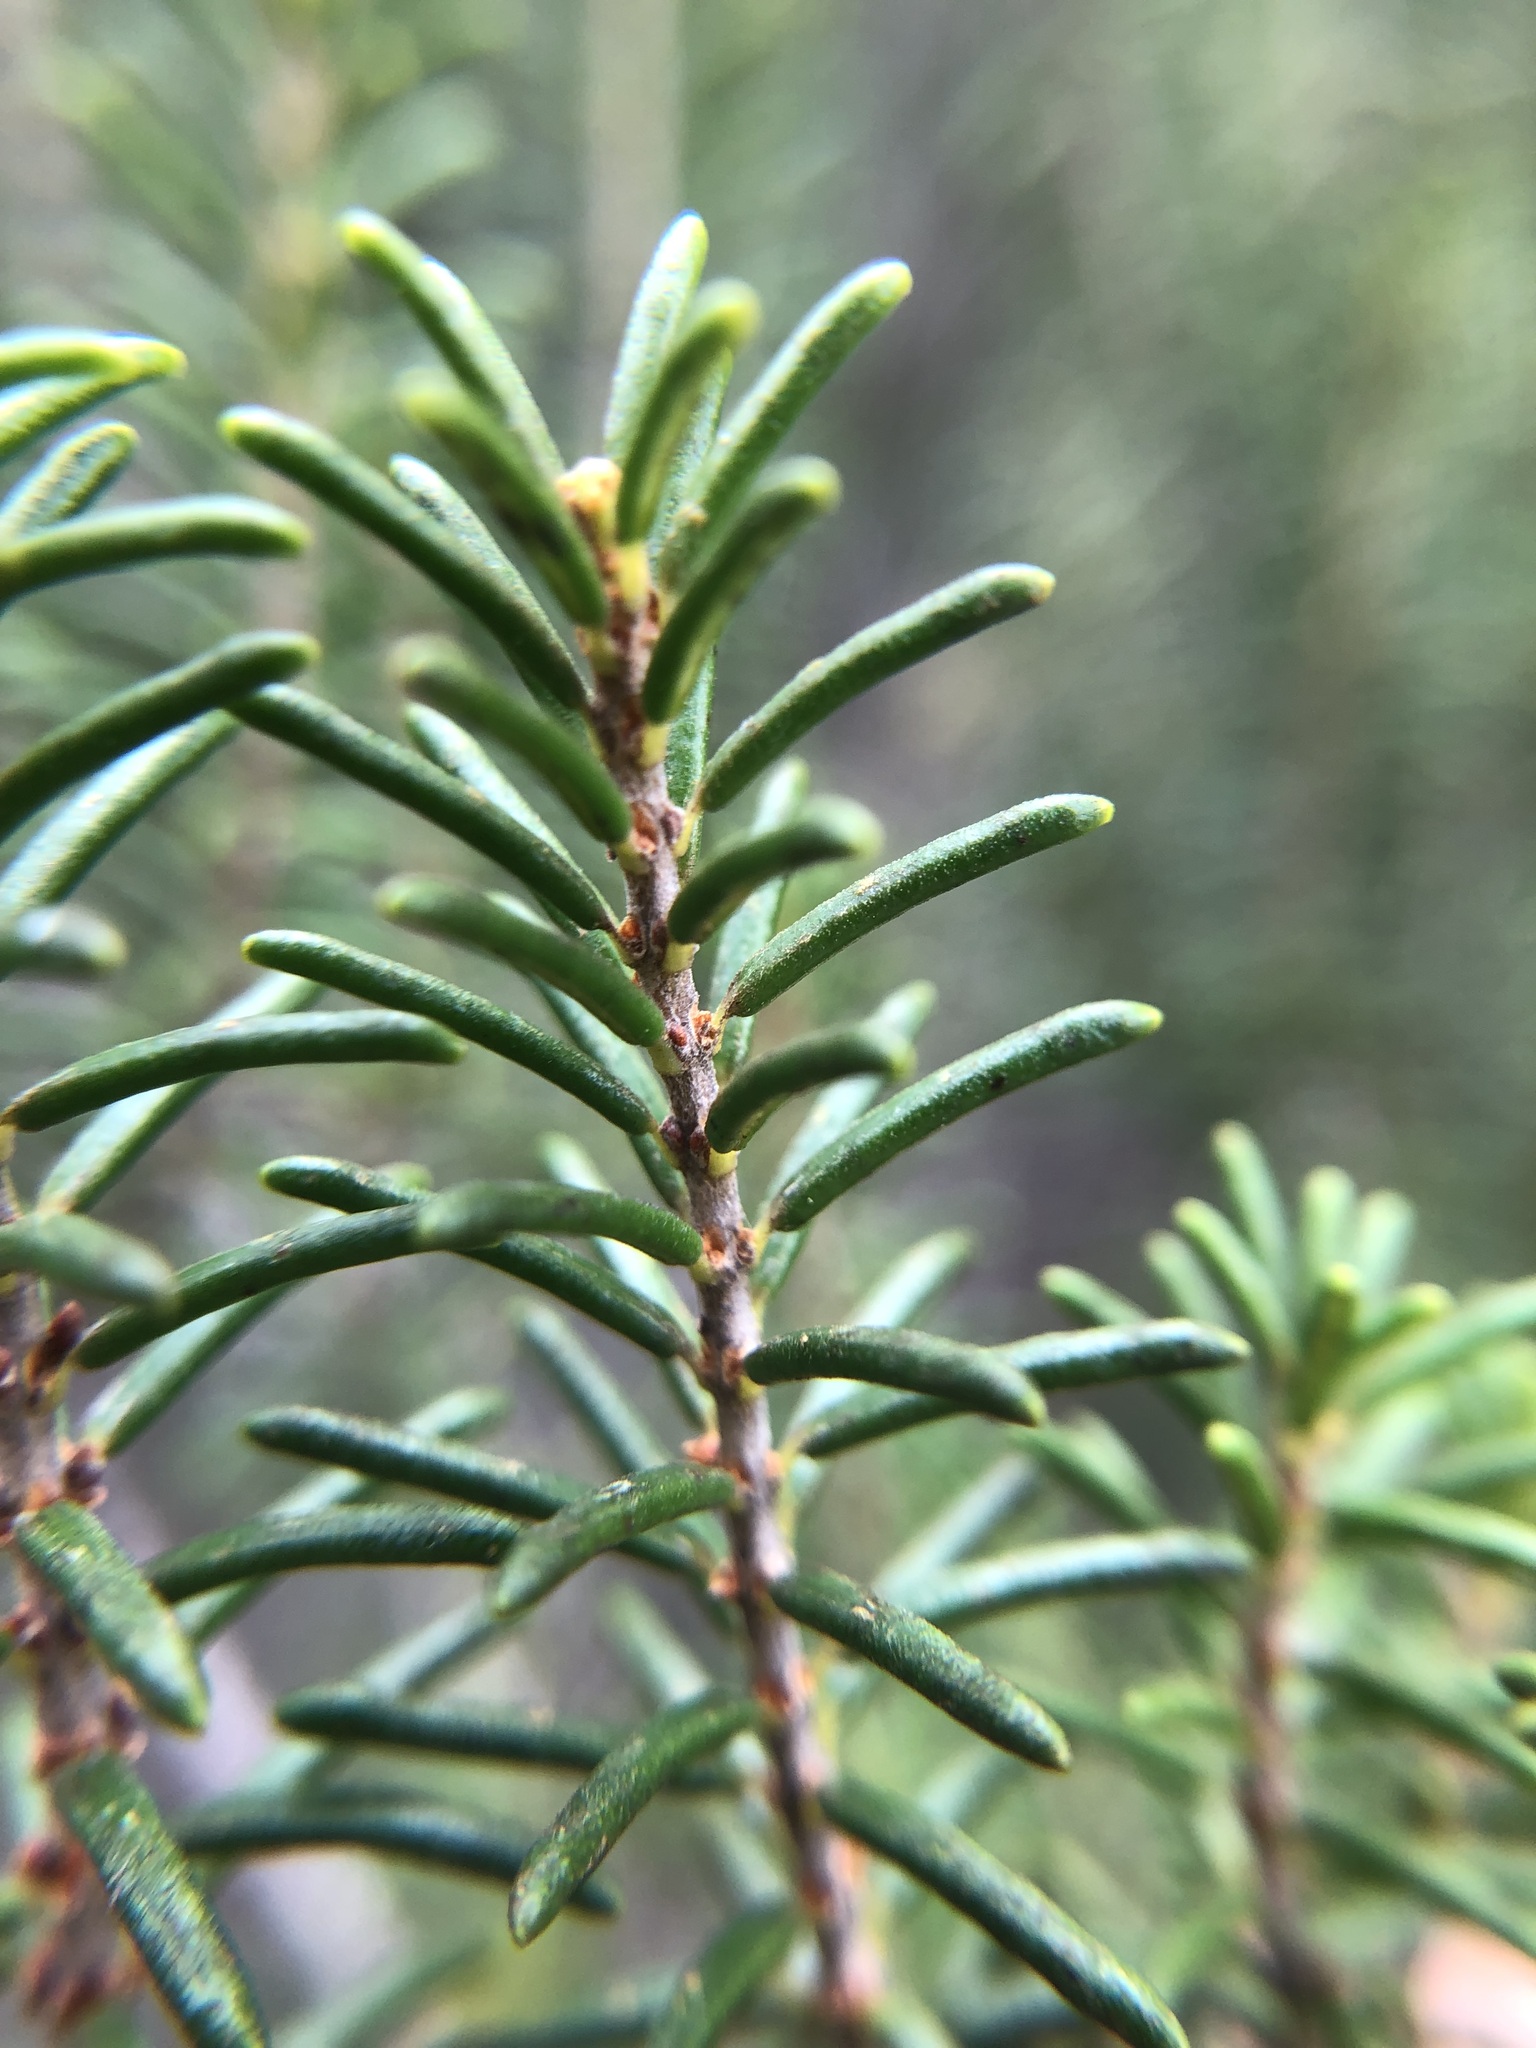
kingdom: Plantae
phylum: Tracheophyta
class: Magnoliopsida
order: Ericales
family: Ericaceae
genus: Ceratiola
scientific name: Ceratiola ericoides
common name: Sandhill-rosemary
